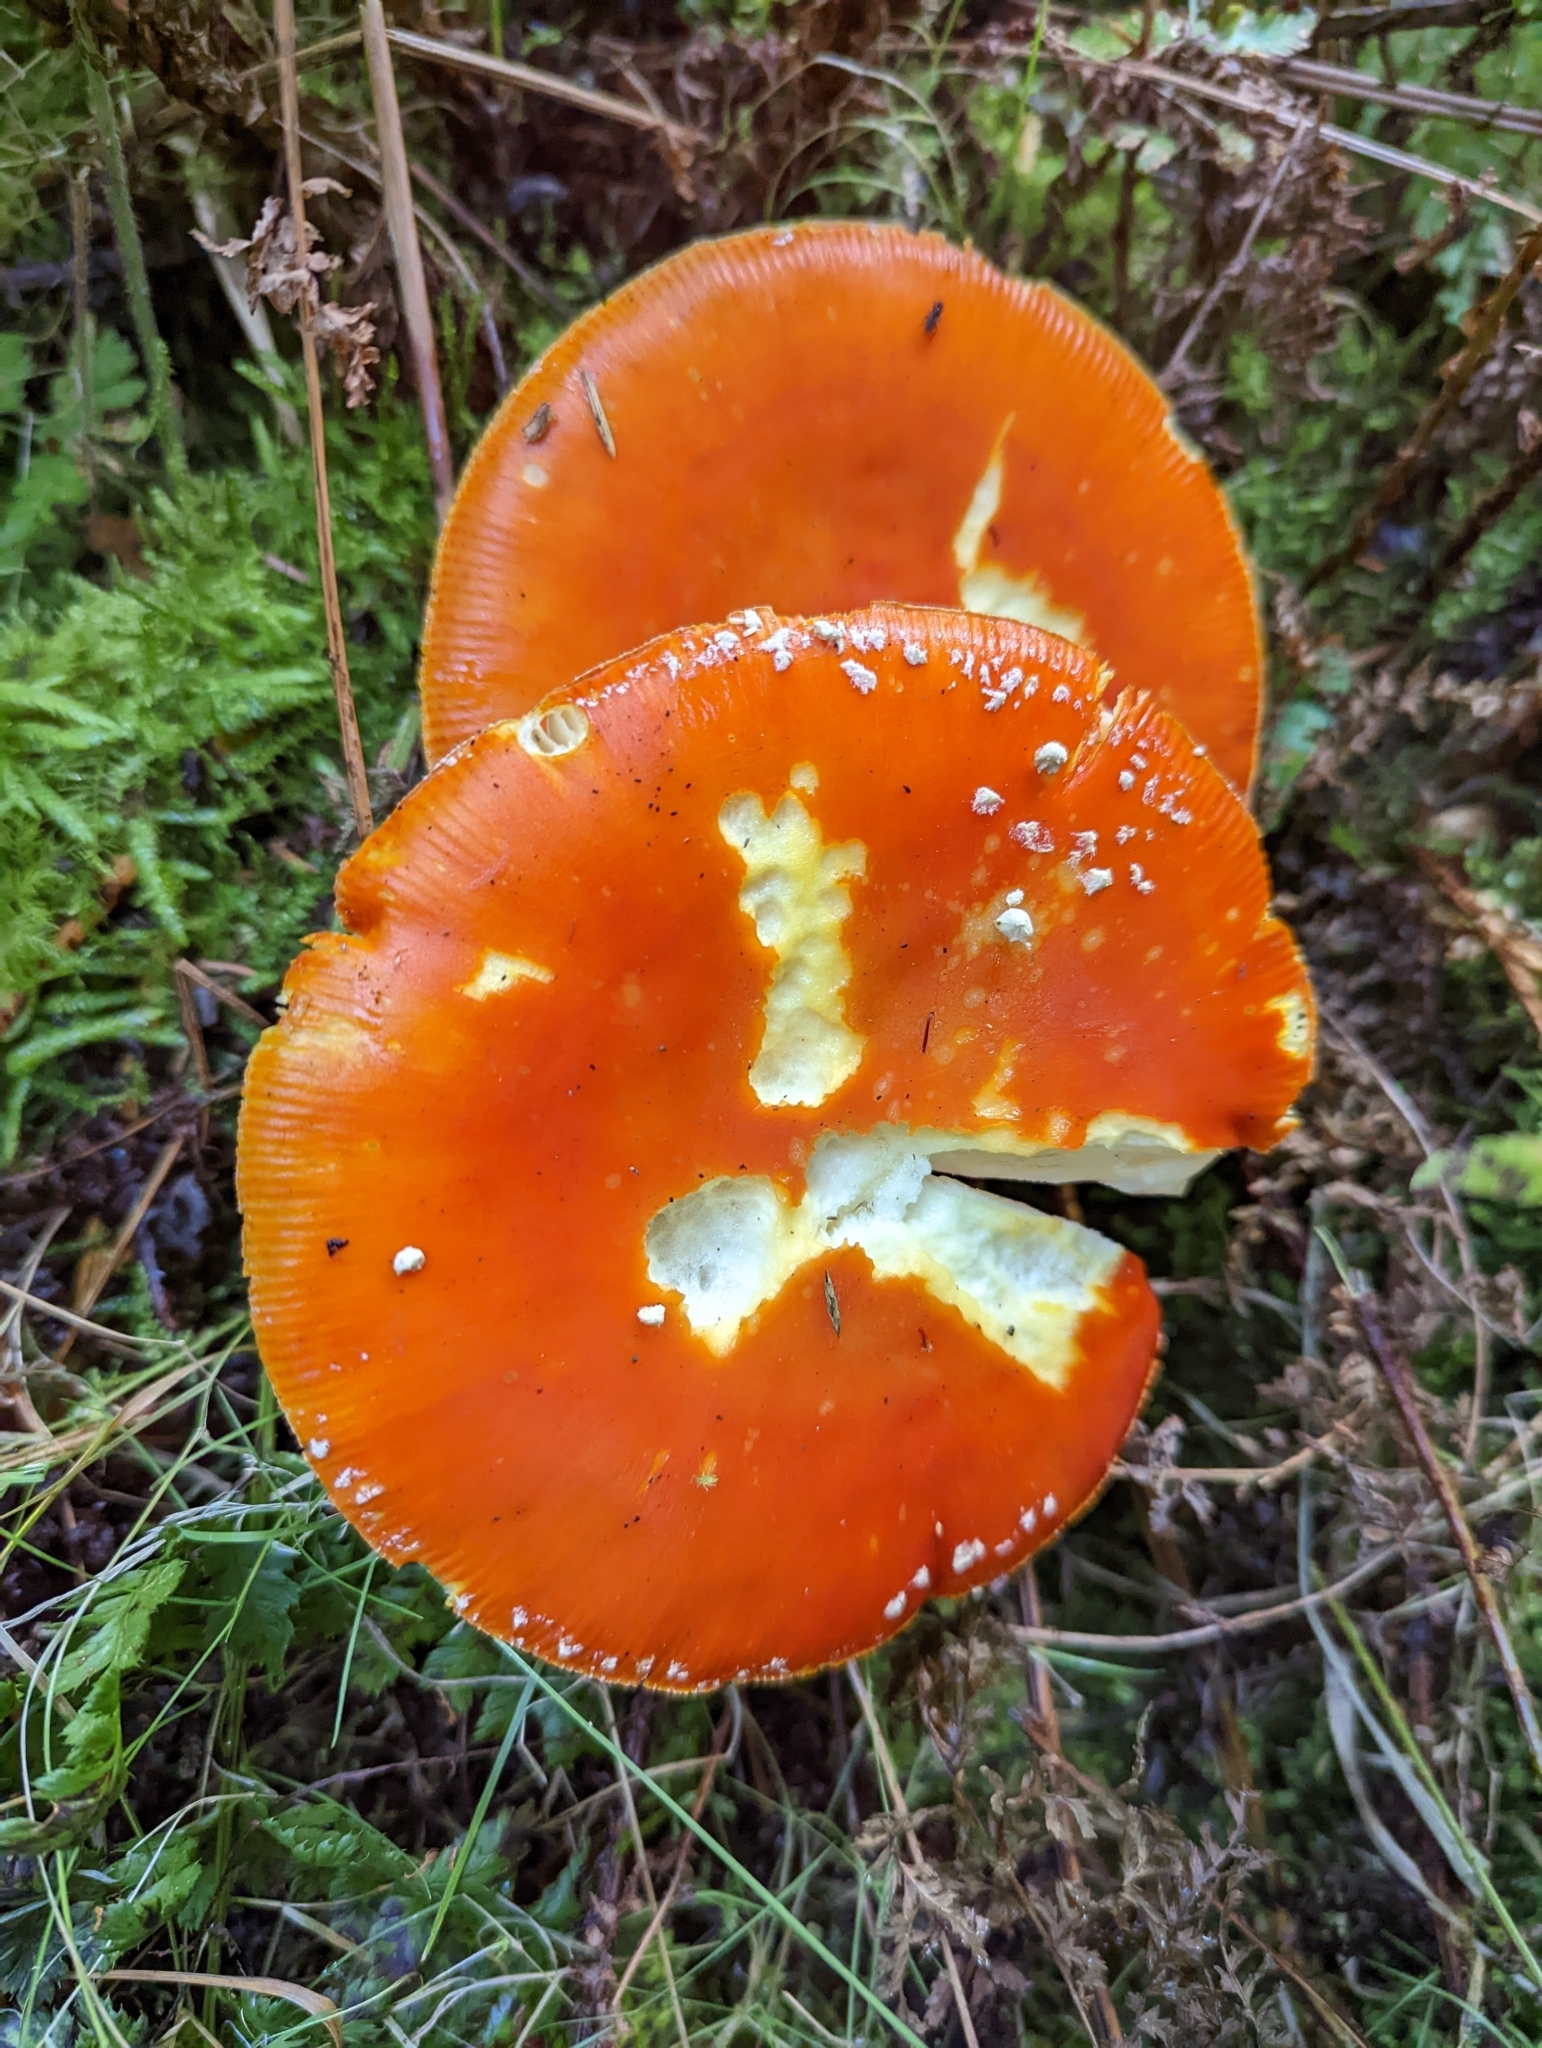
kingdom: Fungi
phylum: Basidiomycota
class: Agaricomycetes
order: Agaricales
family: Amanitaceae
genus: Amanita
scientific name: Amanita muscaria
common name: Fly agaric
